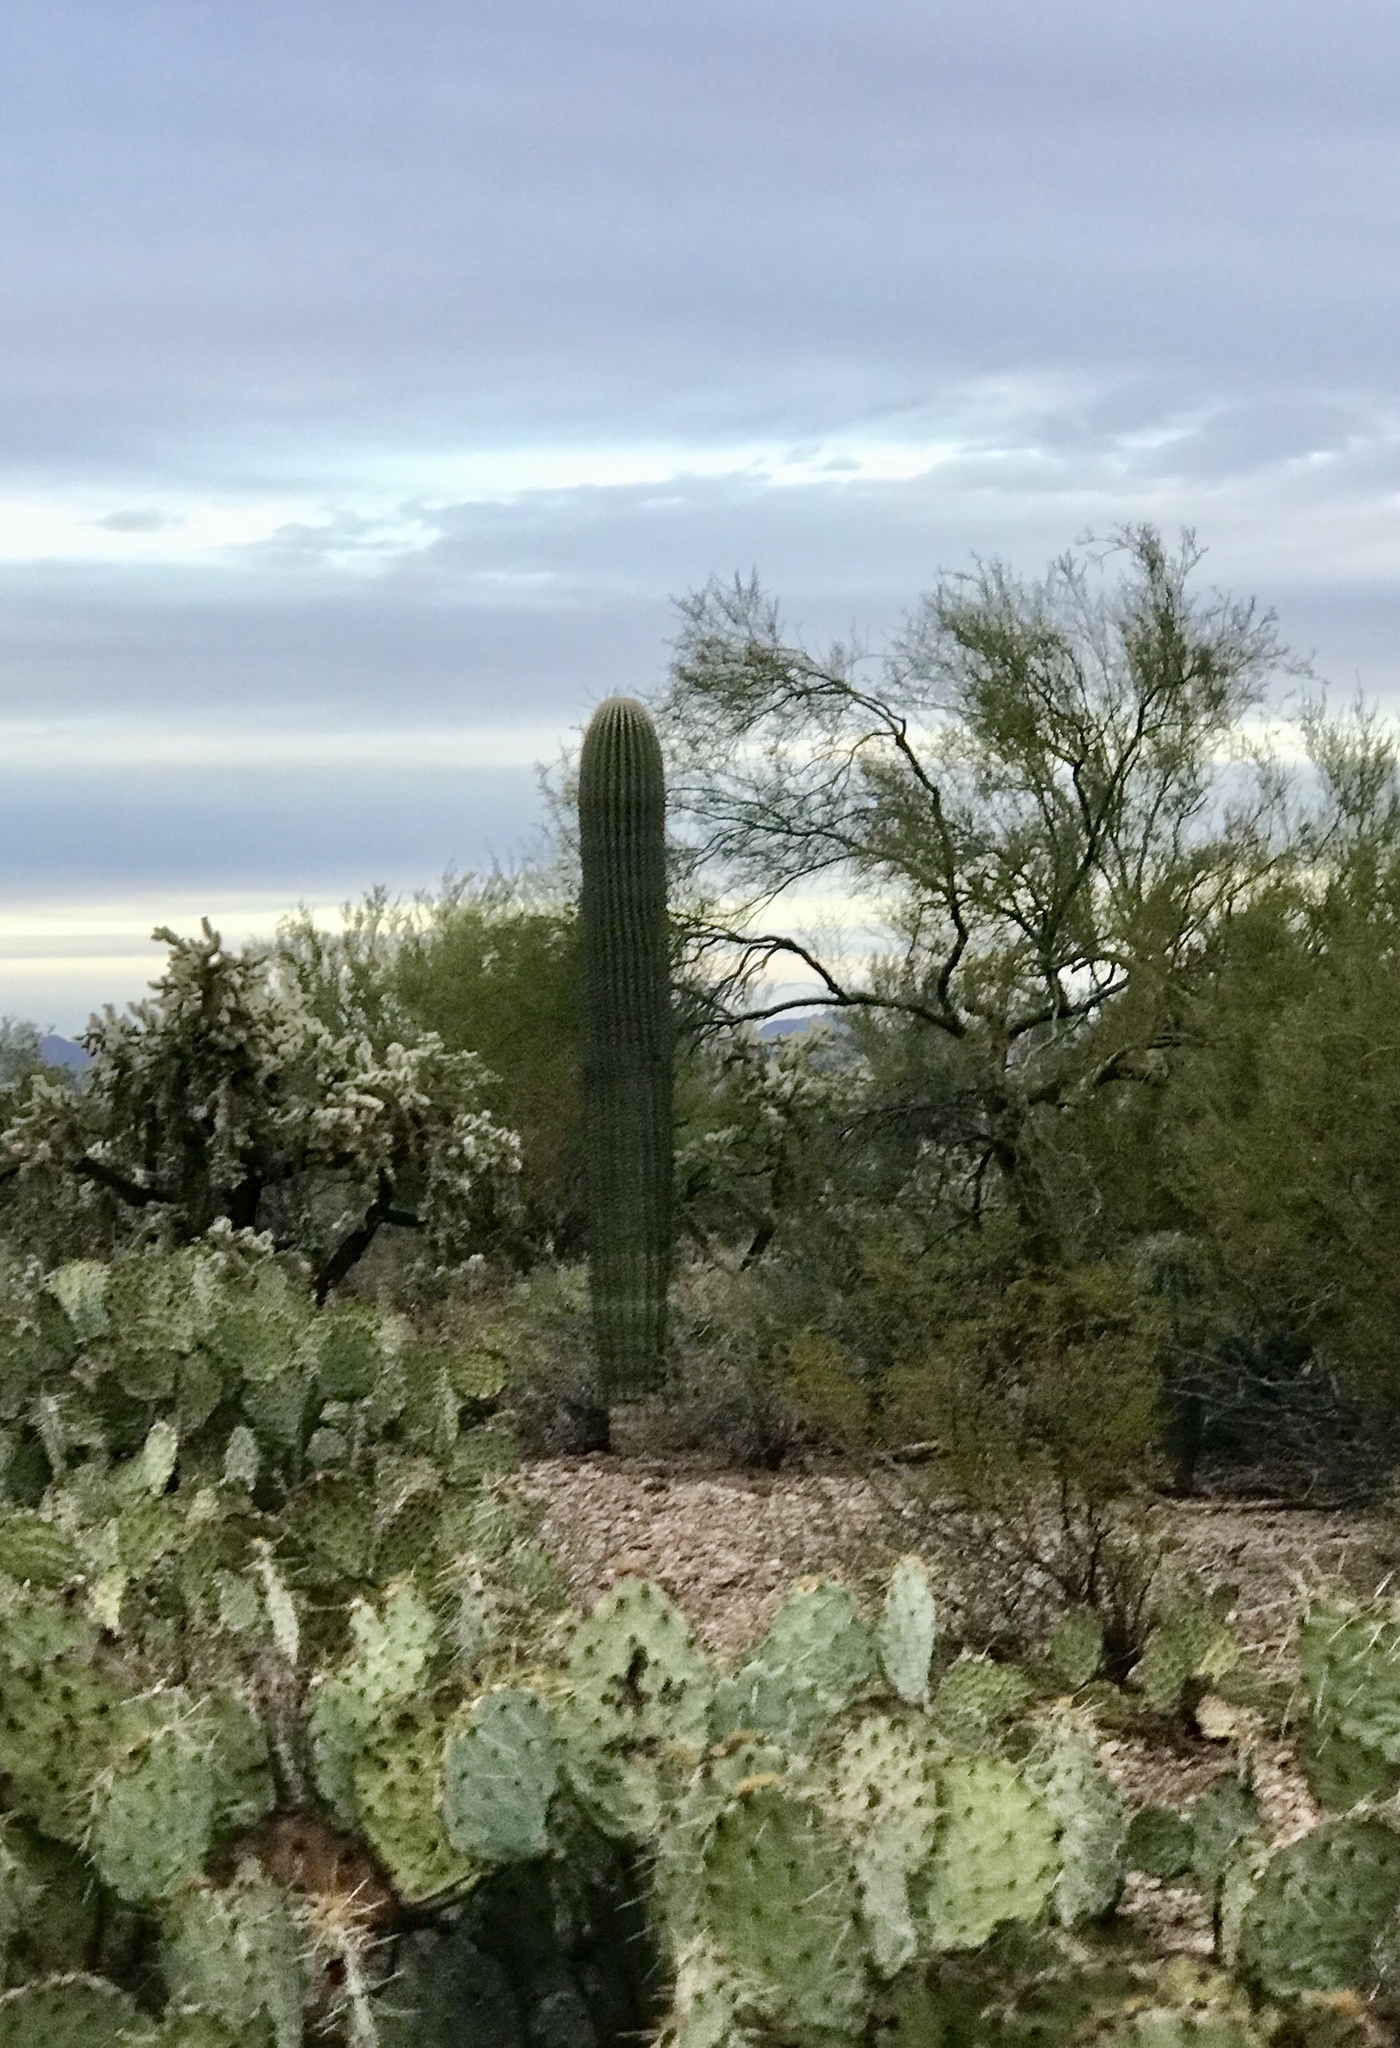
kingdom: Plantae
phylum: Tracheophyta
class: Magnoliopsida
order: Caryophyllales
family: Cactaceae
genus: Carnegiea
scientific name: Carnegiea gigantea
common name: Saguaro
